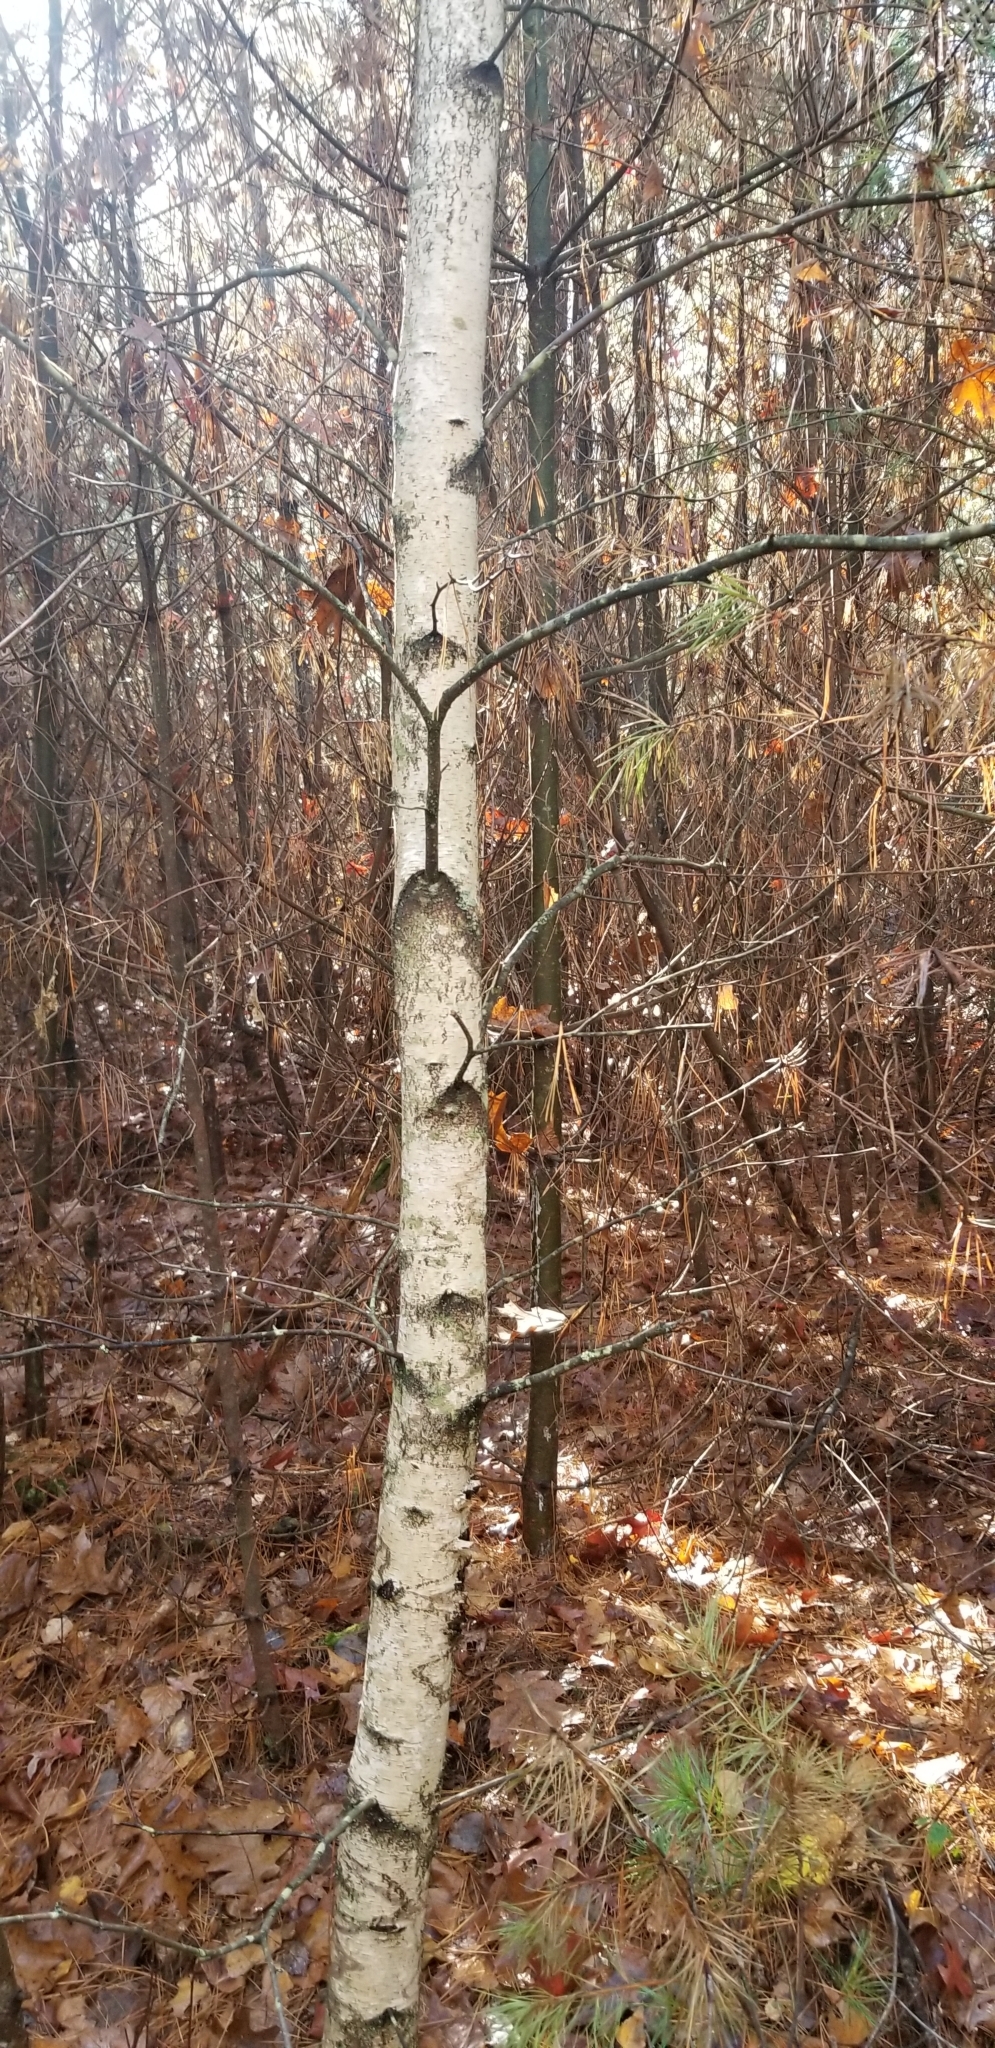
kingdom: Plantae
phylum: Tracheophyta
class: Magnoliopsida
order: Fagales
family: Betulaceae
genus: Betula
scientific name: Betula populifolia
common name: Fire birch
